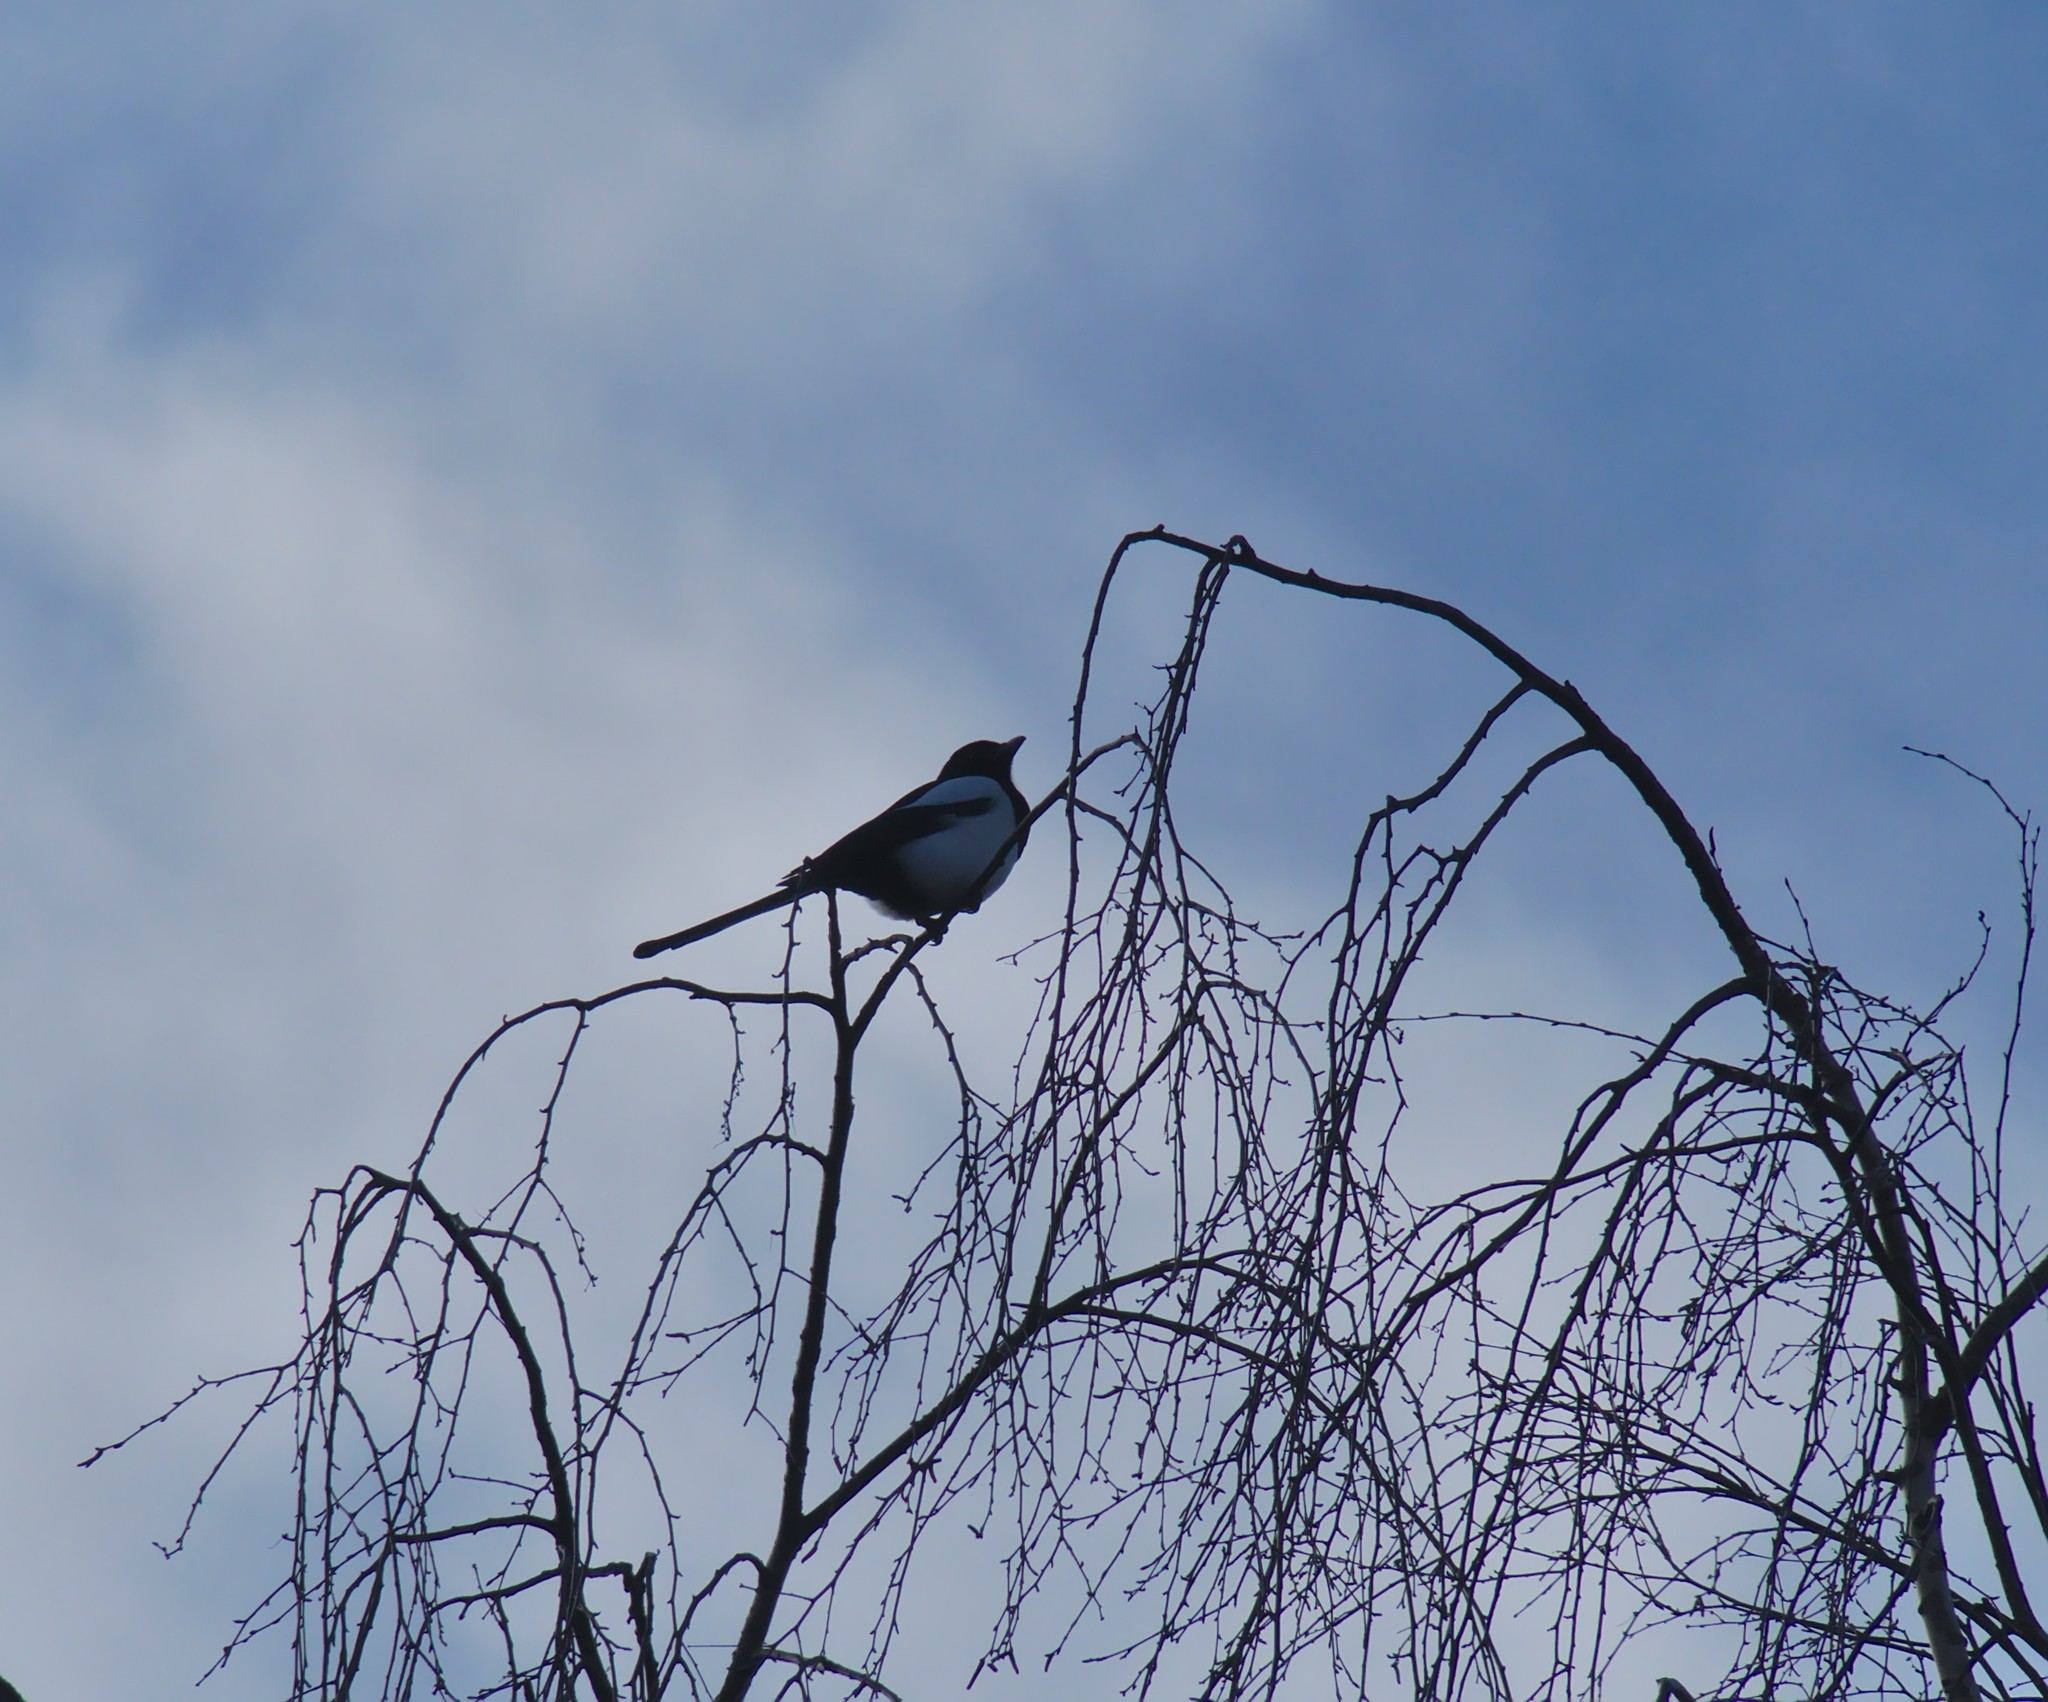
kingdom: Animalia
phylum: Chordata
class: Aves
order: Passeriformes
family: Corvidae
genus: Pica
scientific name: Pica pica
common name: Eurasian magpie
